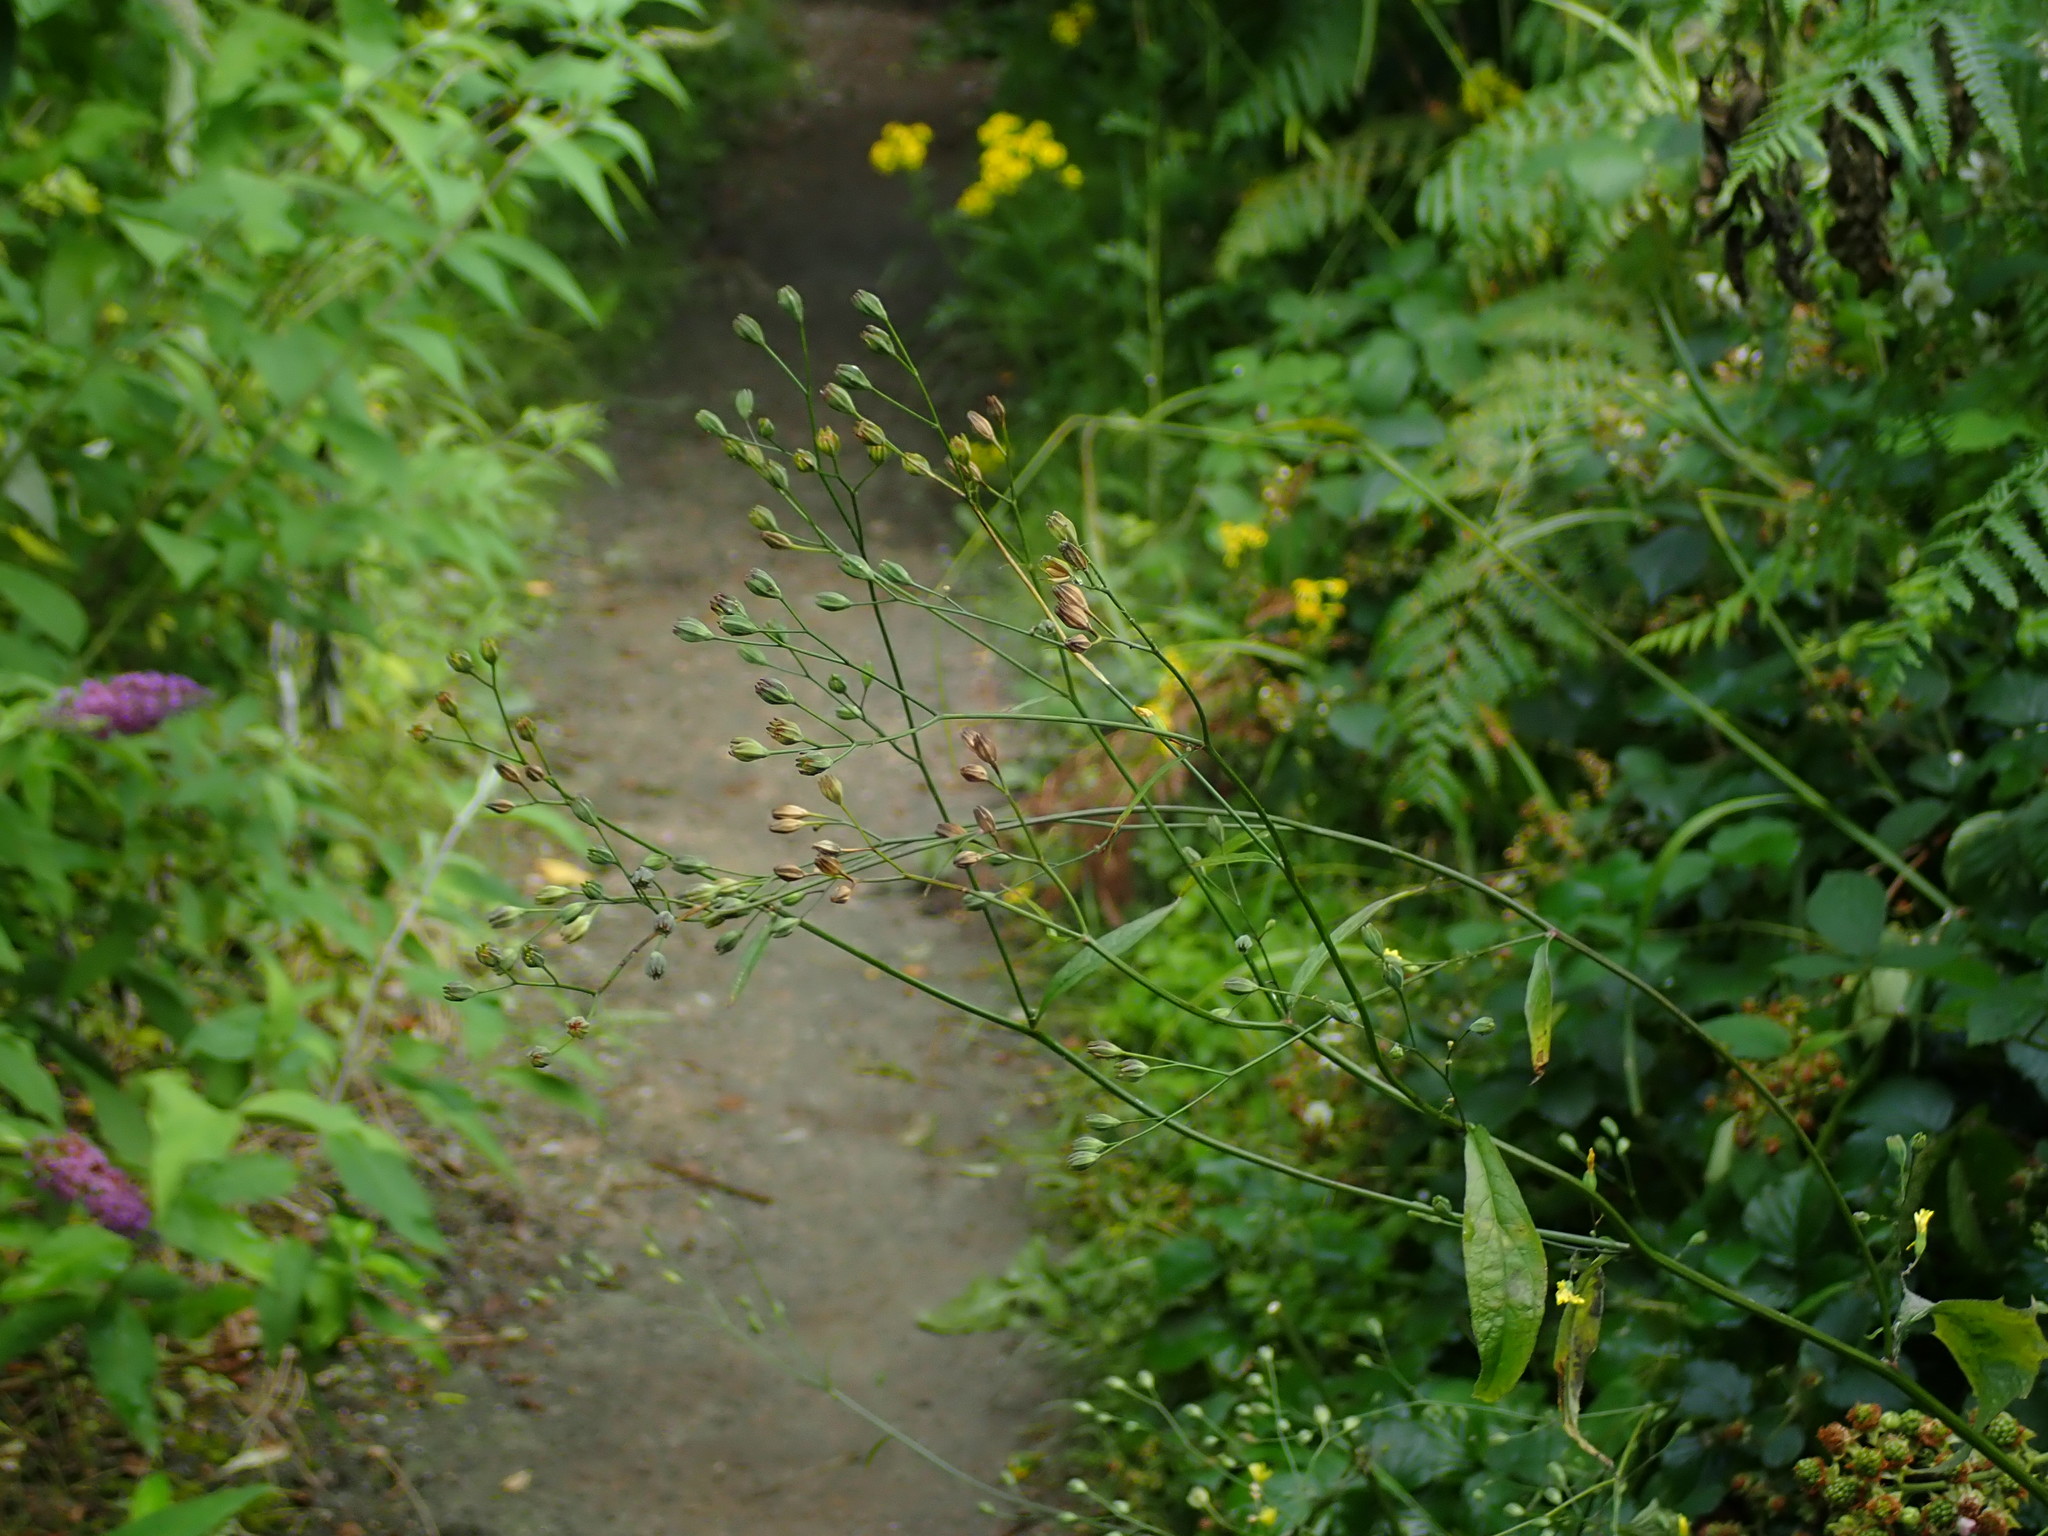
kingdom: Plantae
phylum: Tracheophyta
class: Magnoliopsida
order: Asterales
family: Asteraceae
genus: Lapsana
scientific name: Lapsana communis
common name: Nipplewort
